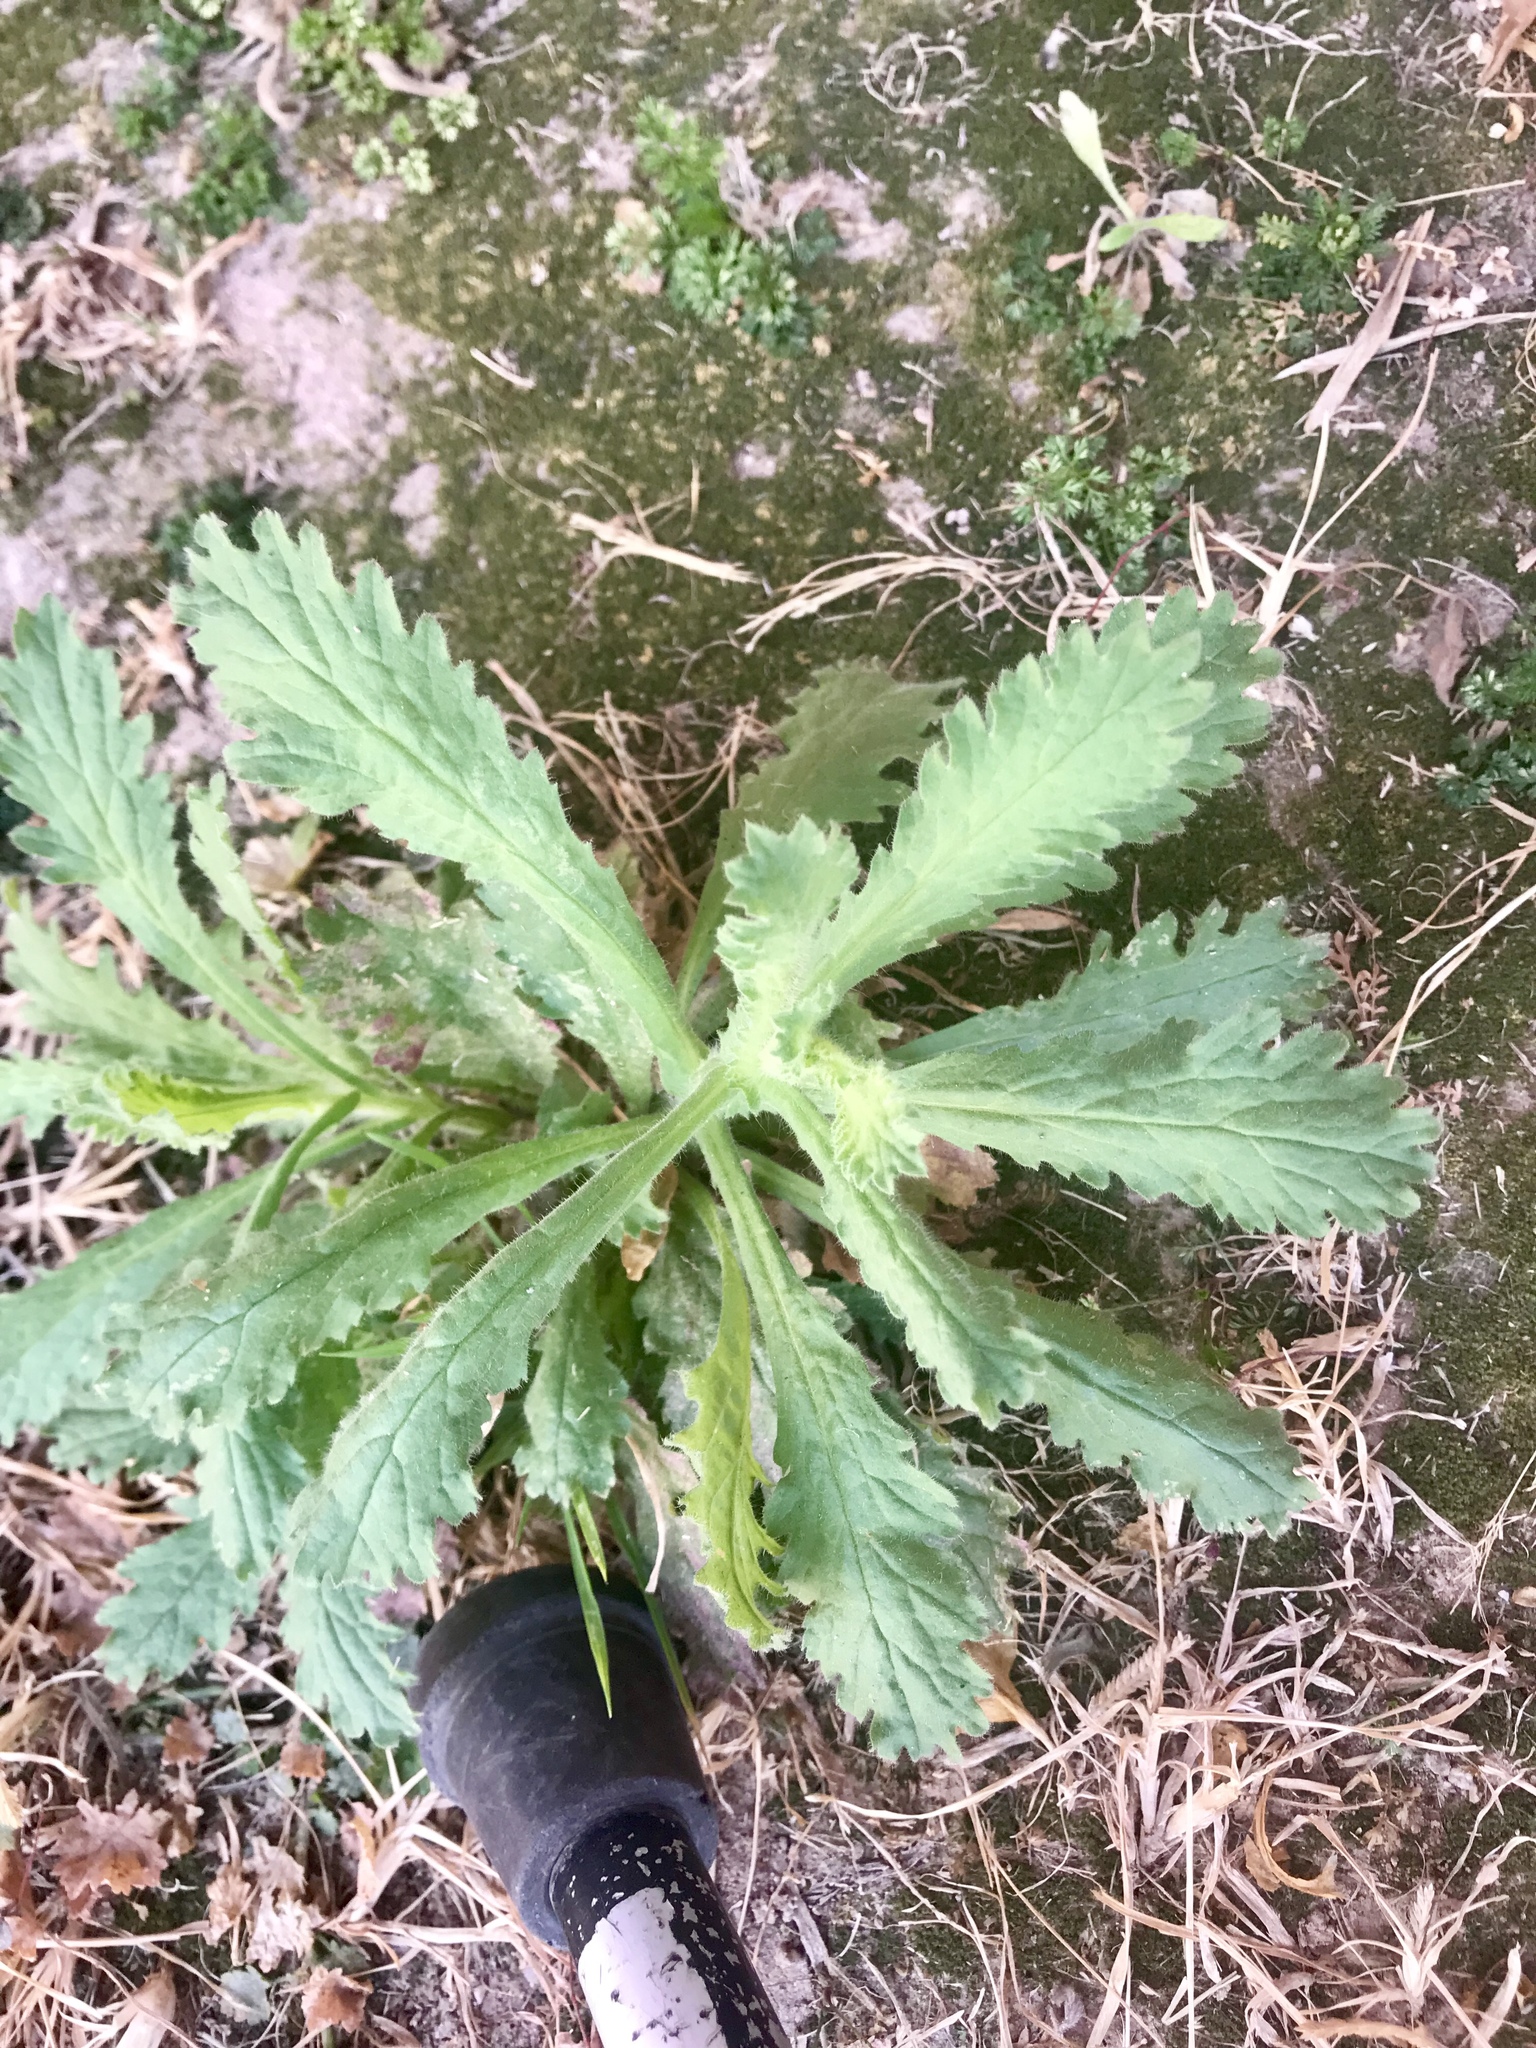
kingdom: Plantae
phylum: Tracheophyta
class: Magnoliopsida
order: Asterales
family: Asteraceae
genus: Erigeron
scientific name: Erigeron canadensis
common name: Canadian fleabane
